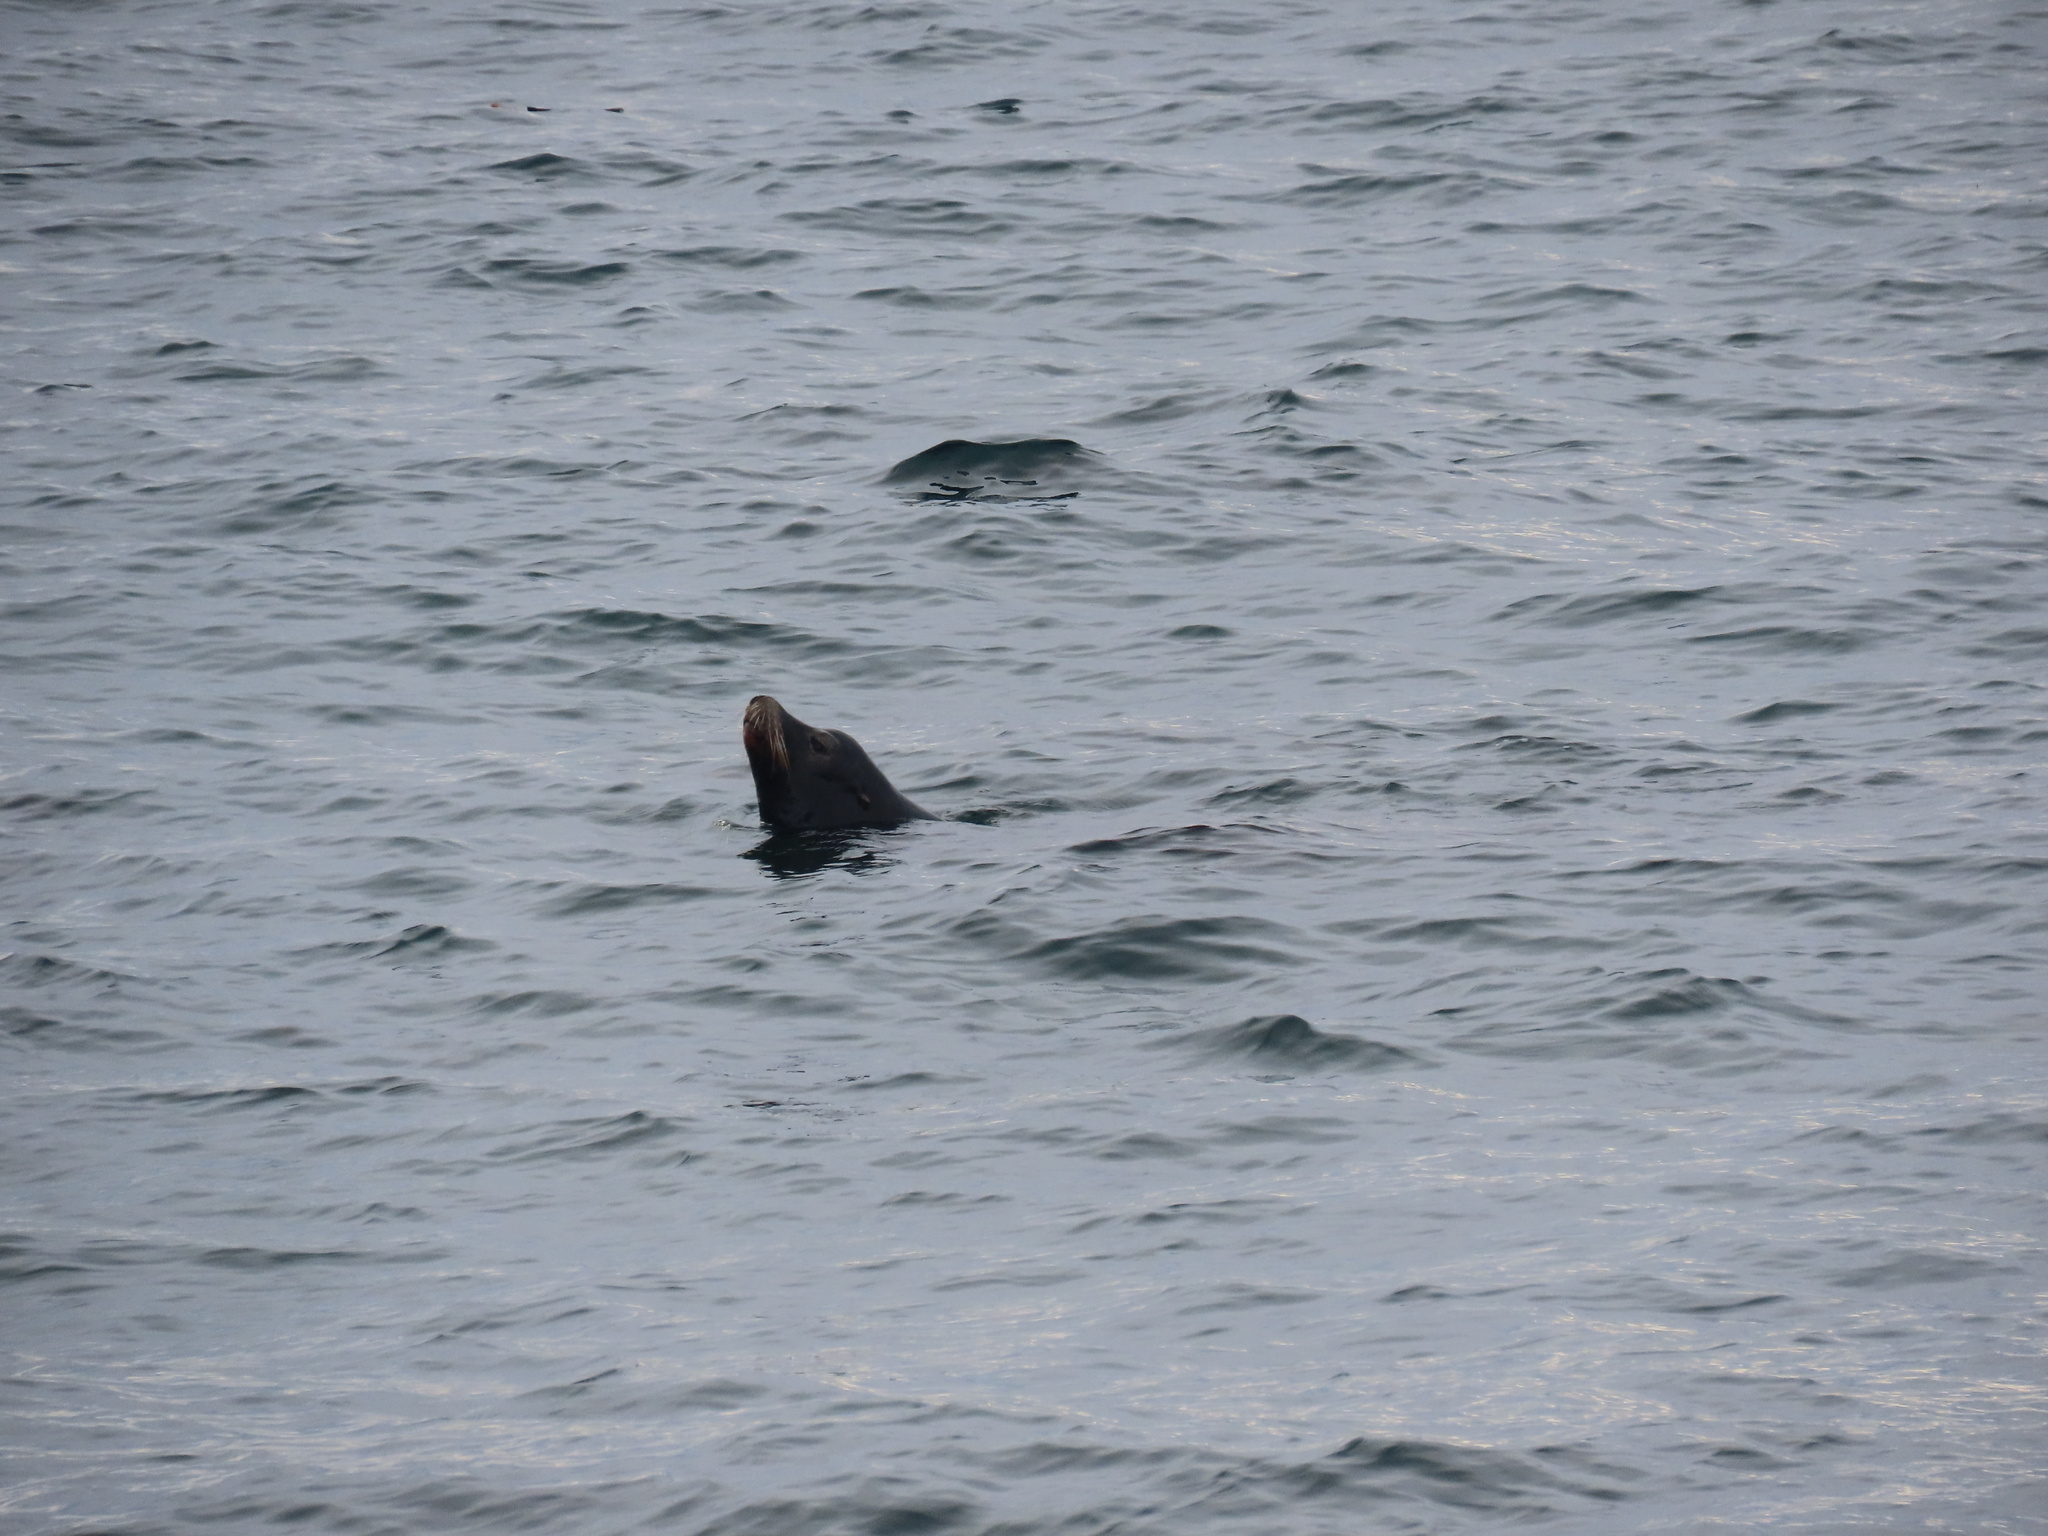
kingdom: Animalia
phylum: Chordata
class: Mammalia
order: Carnivora
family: Otariidae
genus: Zalophus
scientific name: Zalophus californianus
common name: California sea lion
